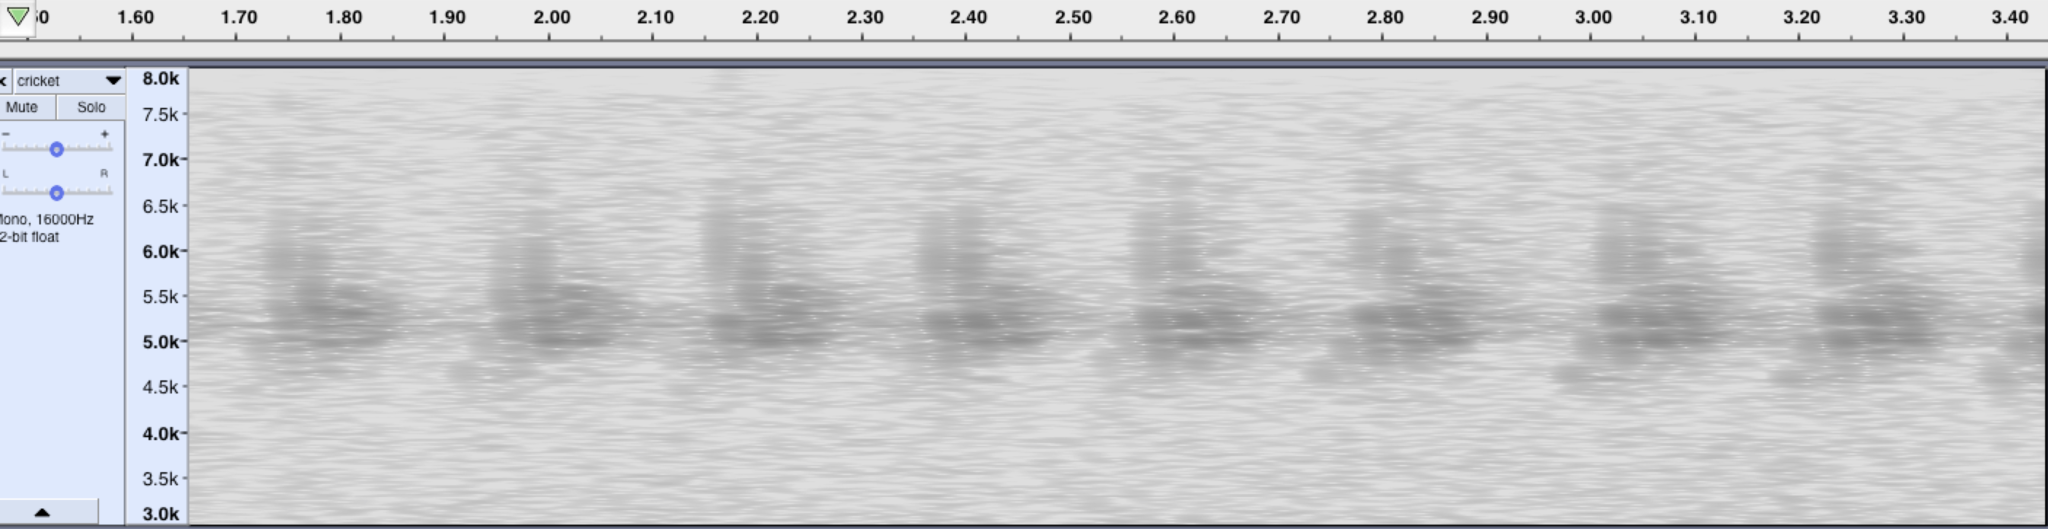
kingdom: Animalia
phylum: Arthropoda
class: Insecta
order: Orthoptera
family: Gryllidae
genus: Gryllodes
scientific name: Gryllodes sigillatus
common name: Tropical house cricket
